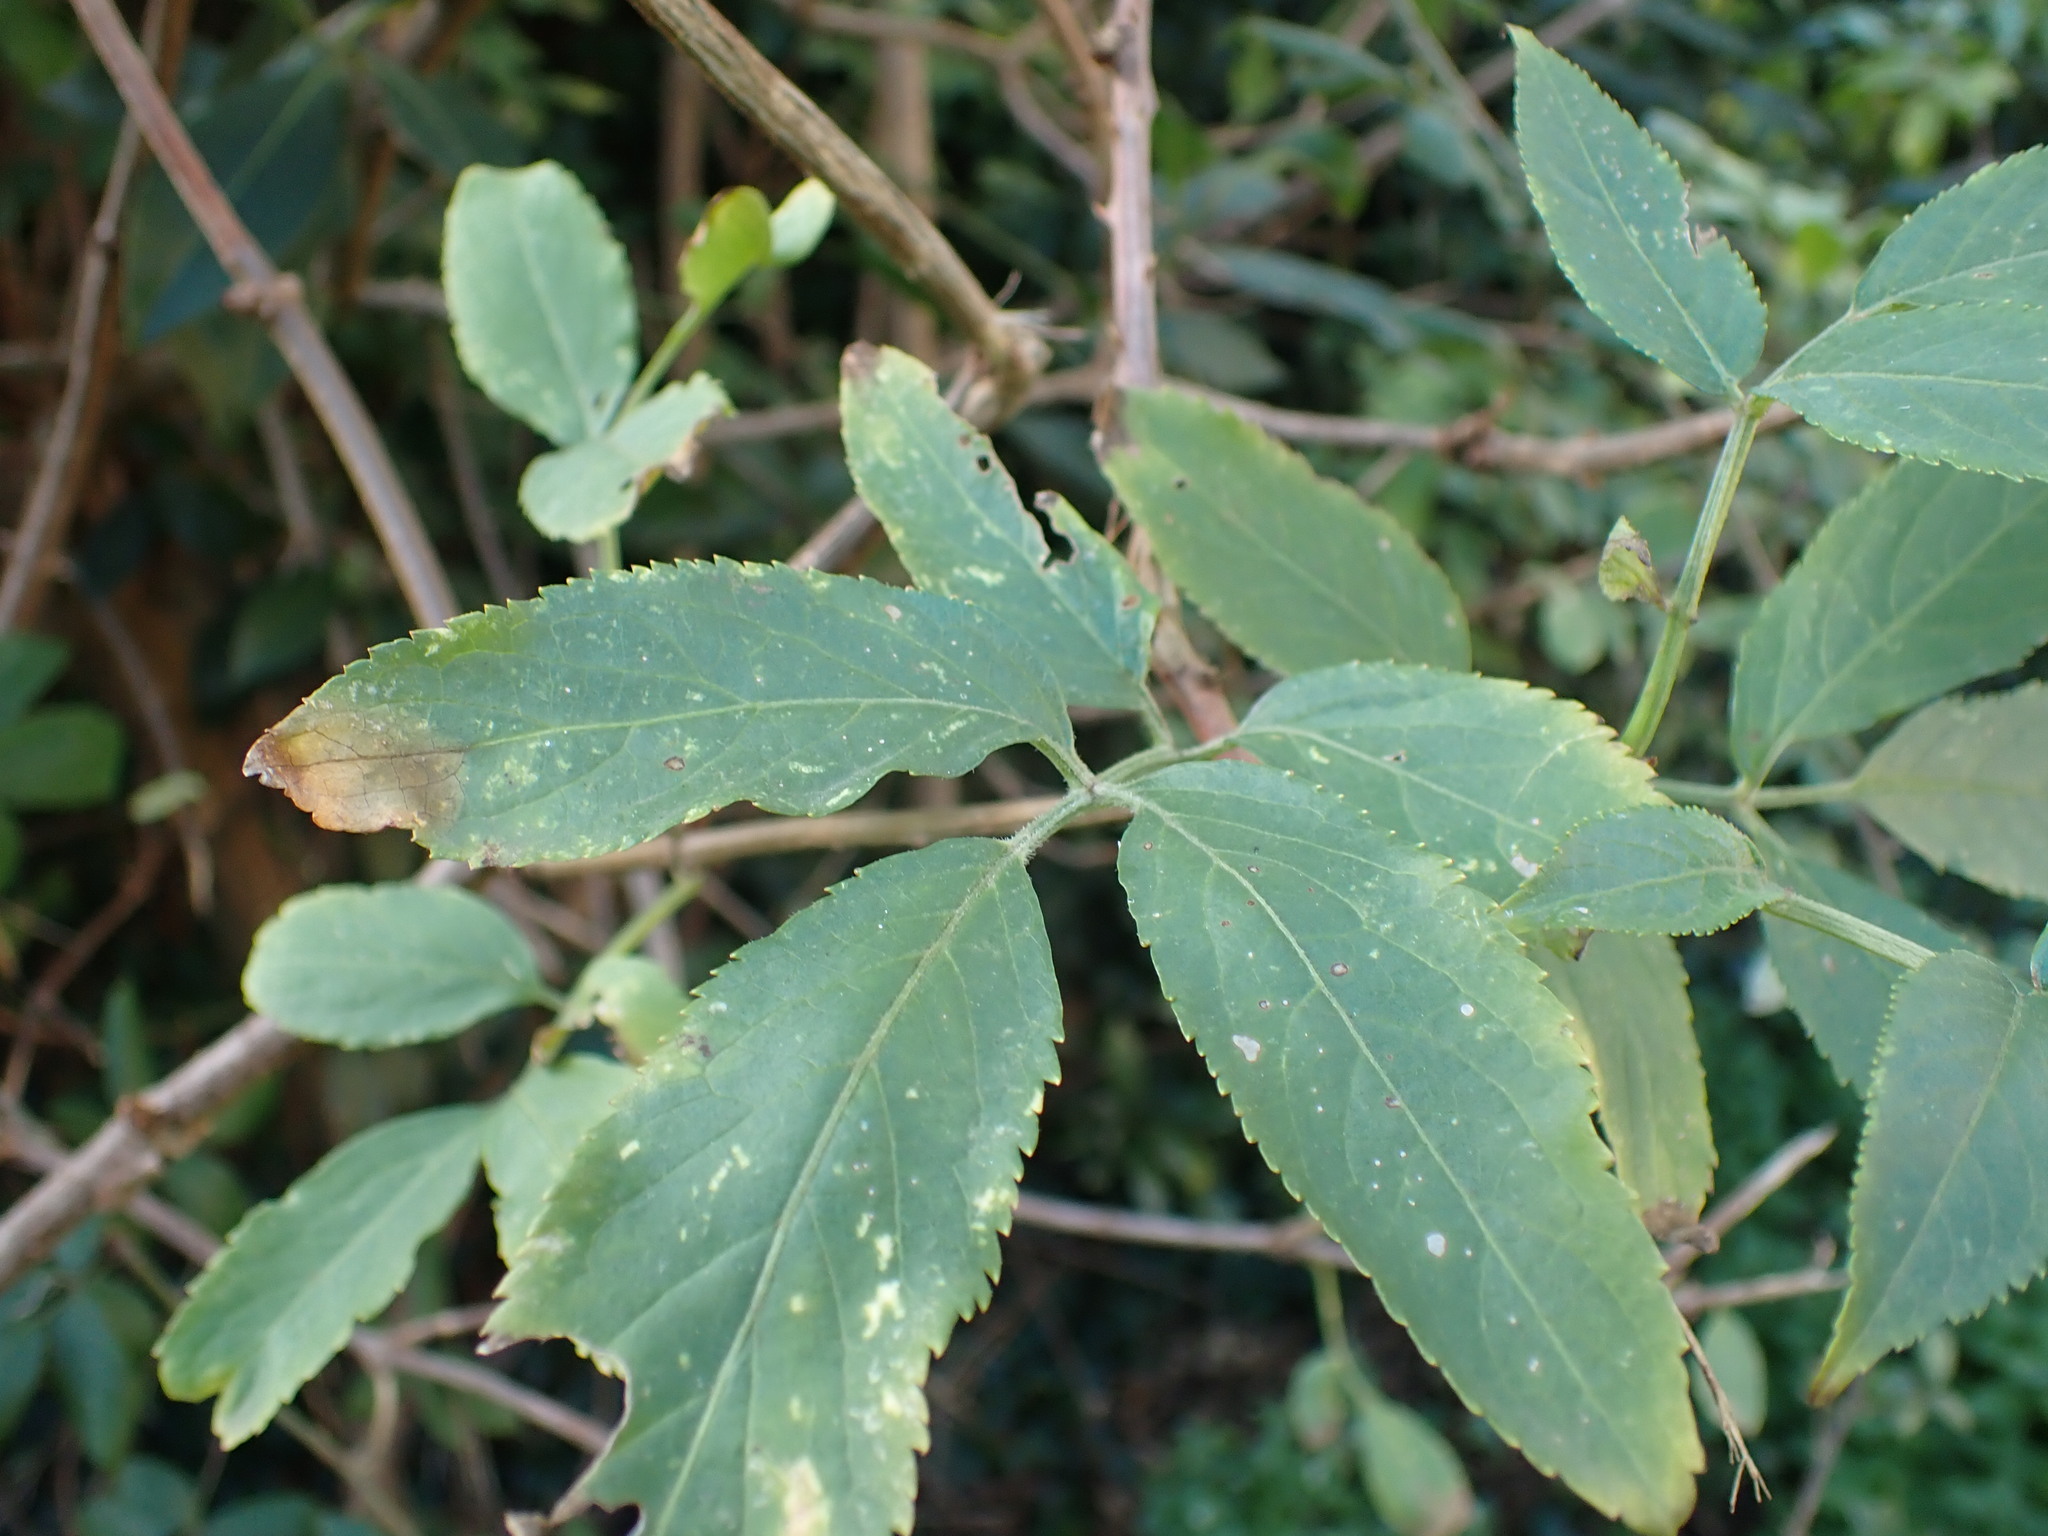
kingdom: Plantae
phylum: Tracheophyta
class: Magnoliopsida
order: Dipsacales
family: Viburnaceae
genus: Sambucus
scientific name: Sambucus nigra
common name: Elder
